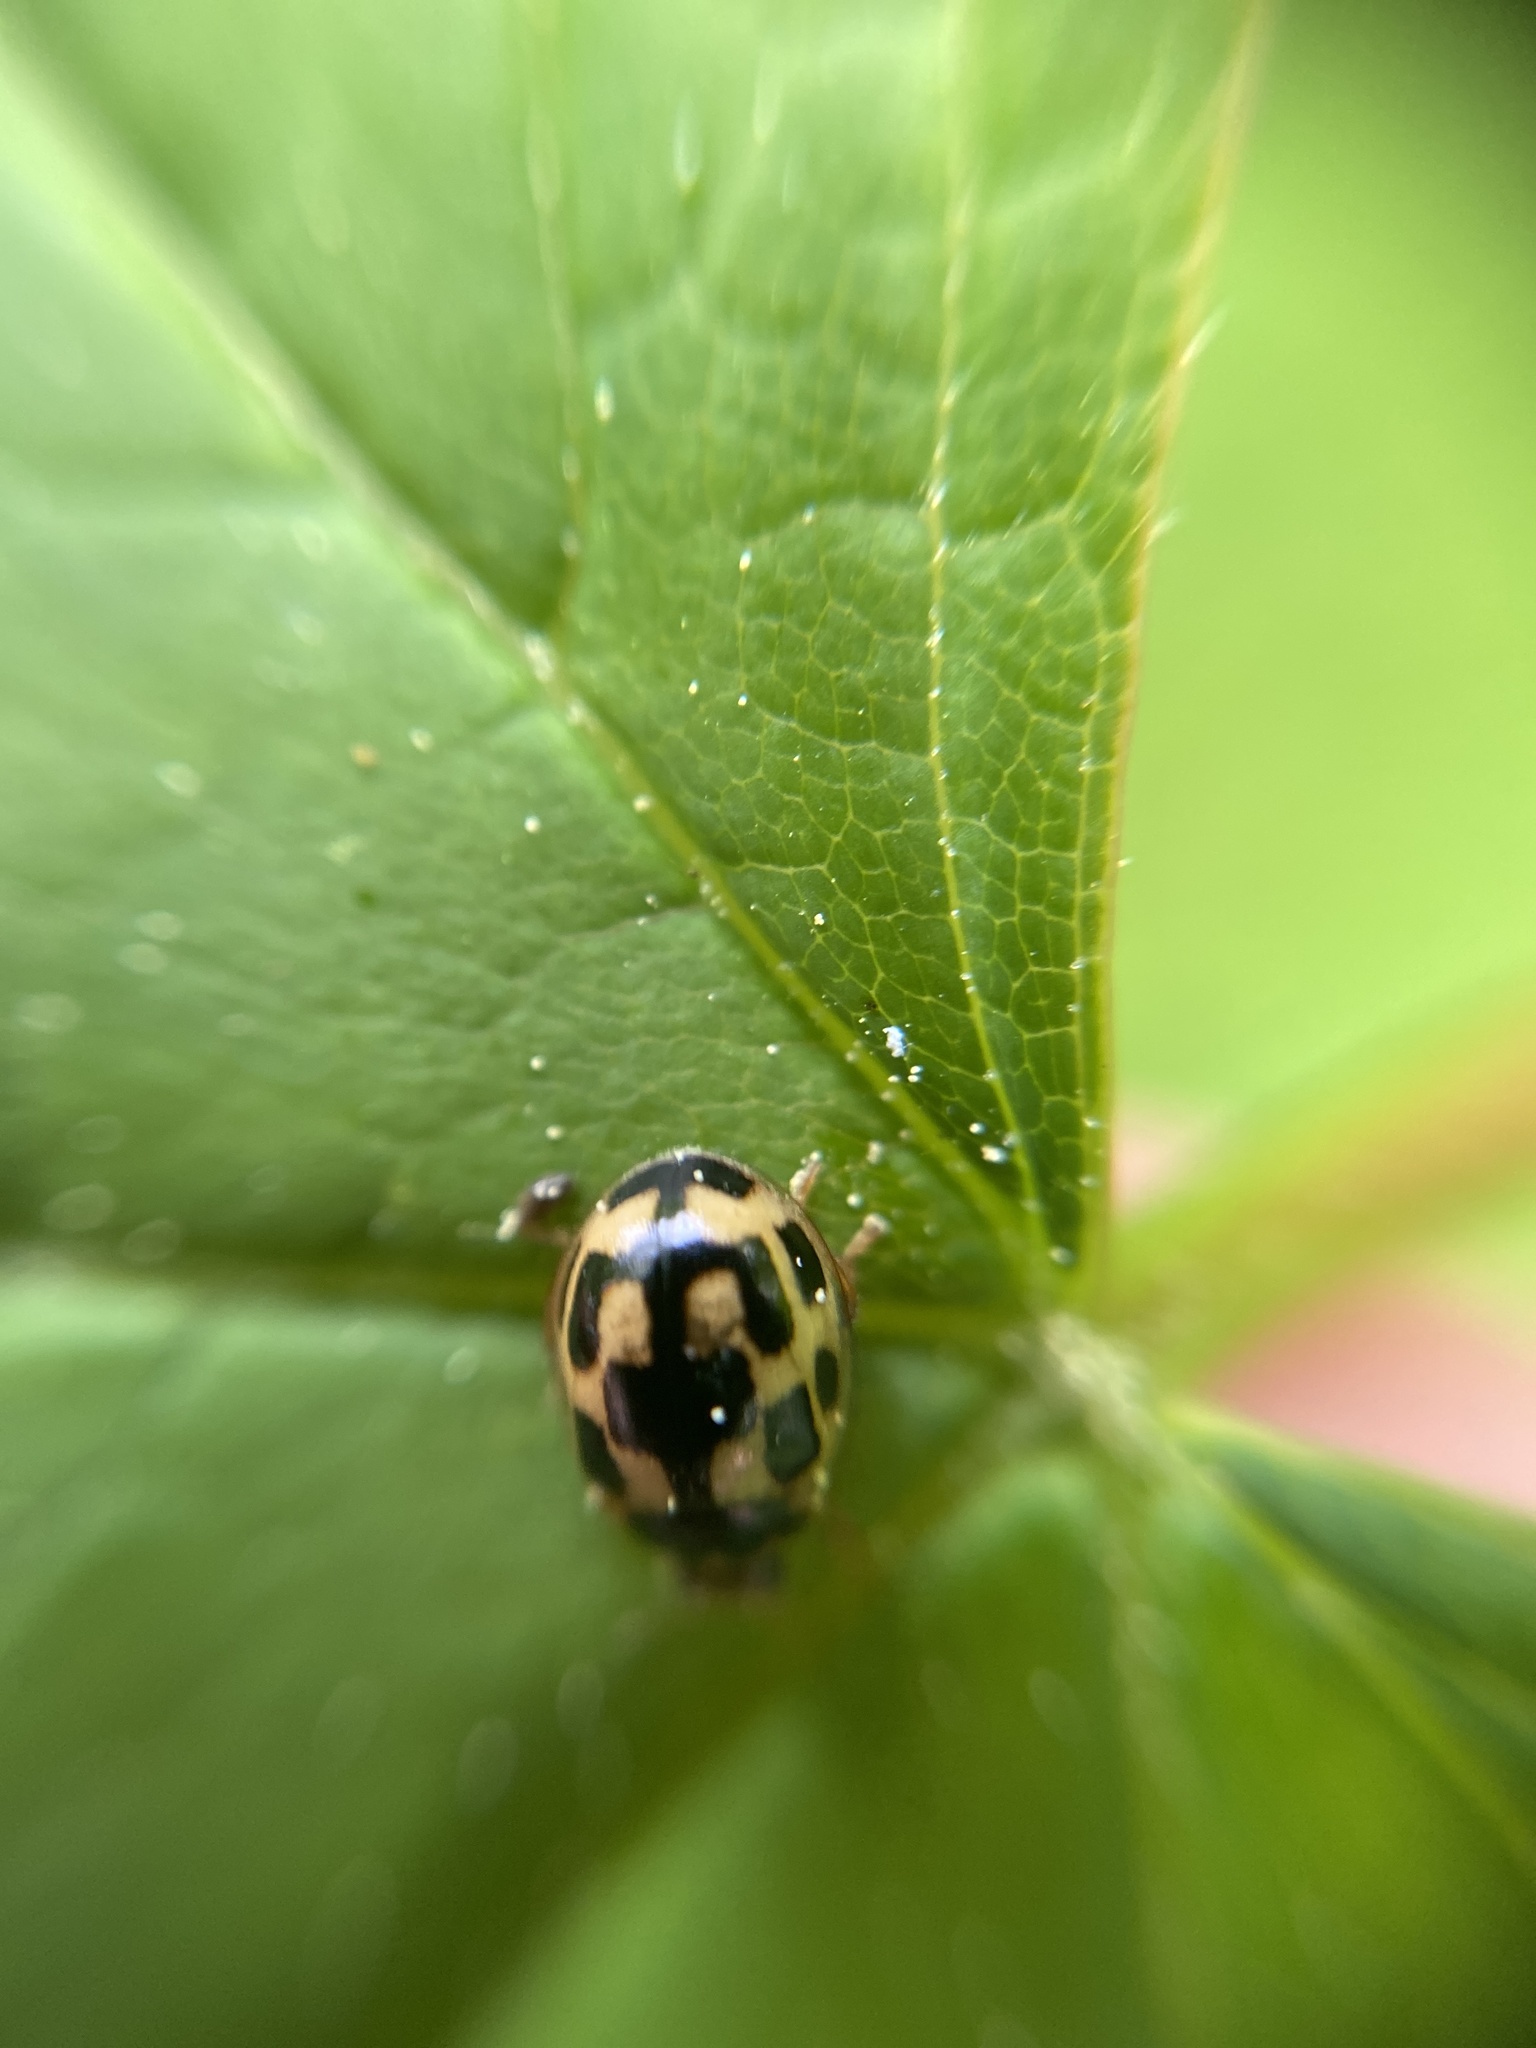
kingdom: Animalia
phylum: Arthropoda
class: Insecta
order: Coleoptera
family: Coccinellidae
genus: Propylaea
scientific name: Propylaea quatuordecimpunctata
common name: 14-spotted ladybird beetle
